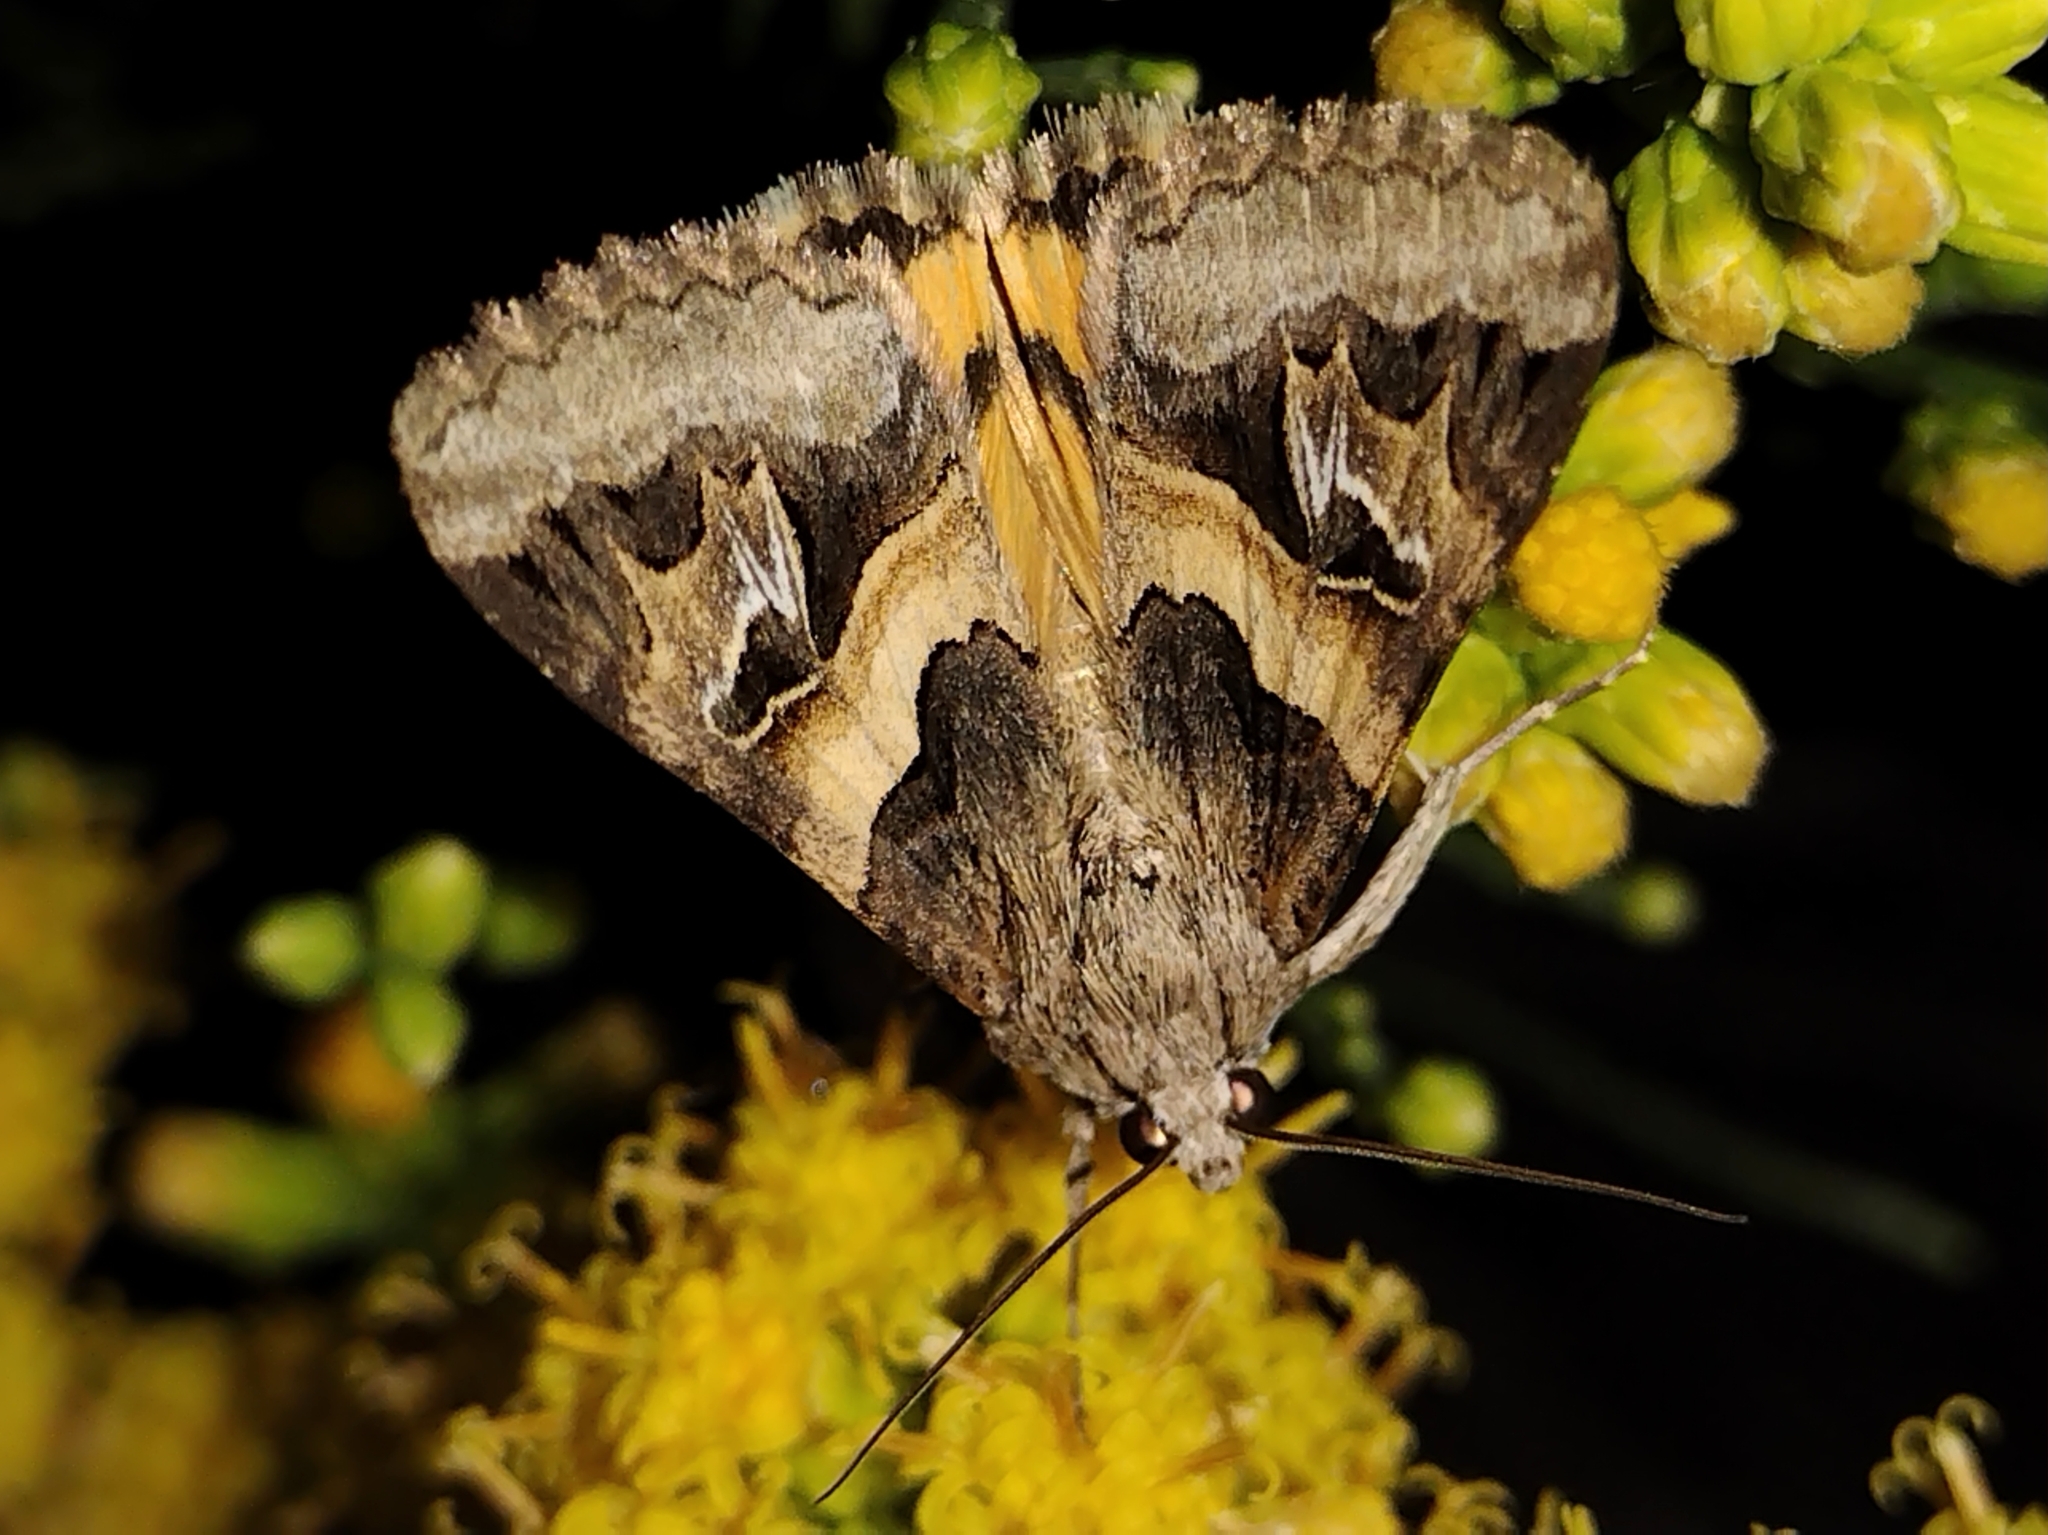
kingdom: Animalia
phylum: Arthropoda
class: Insecta
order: Lepidoptera
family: Erebidae
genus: Drasteria
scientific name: Drasteria divergens
